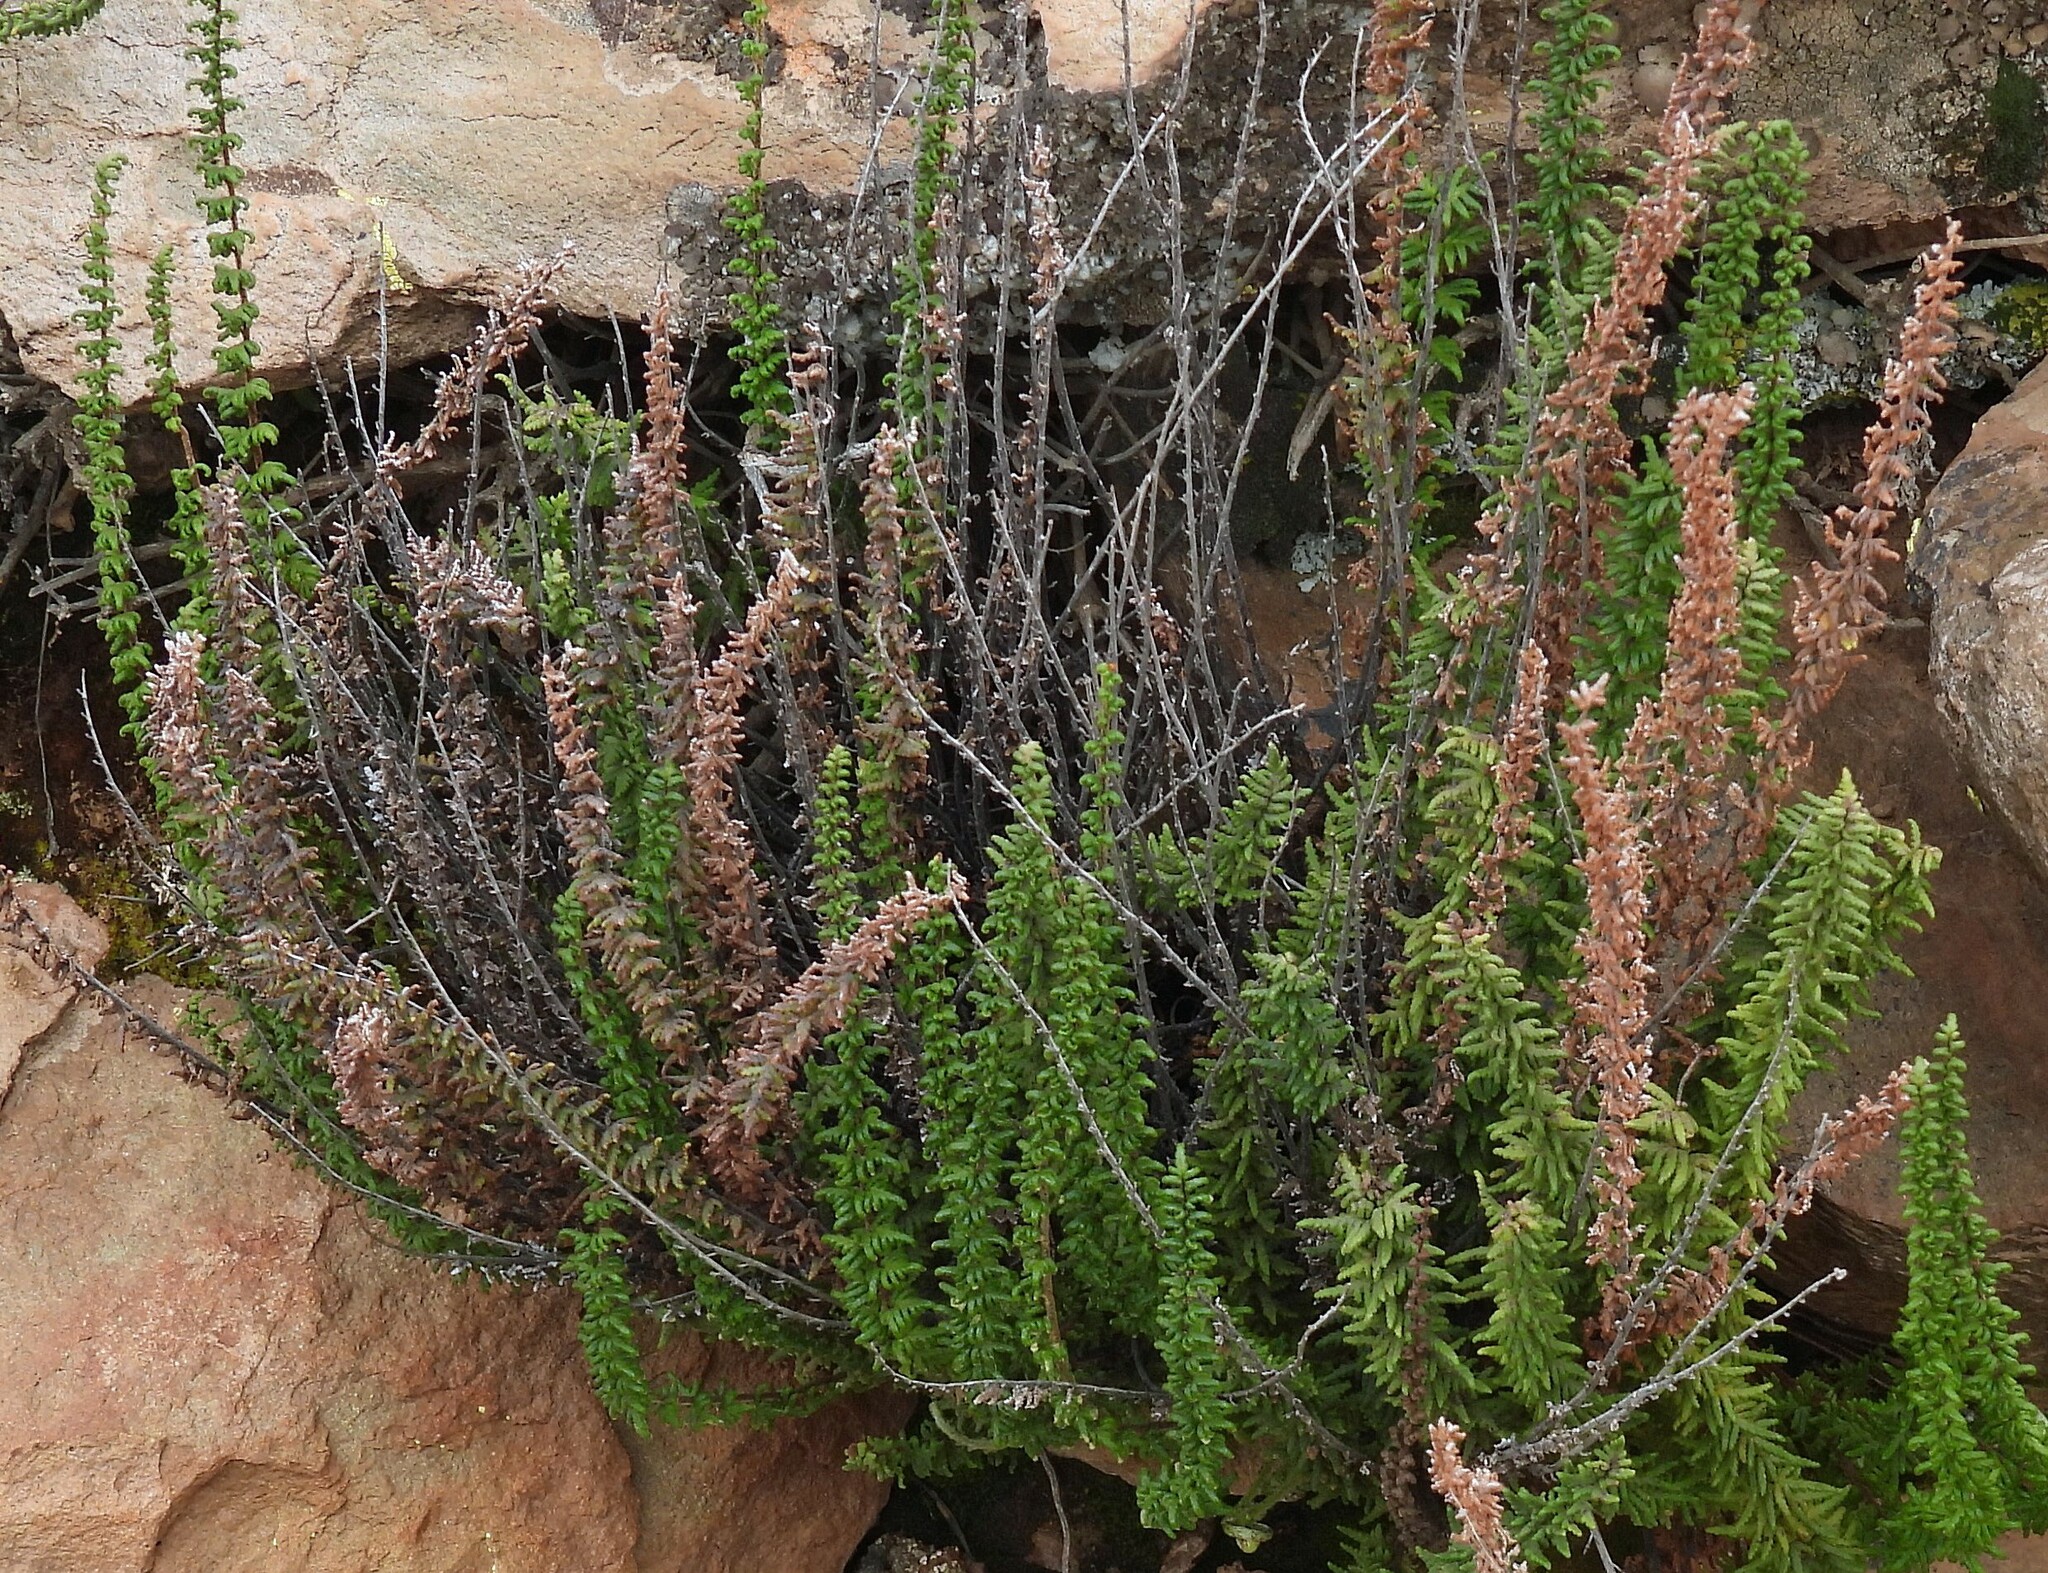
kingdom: Plantae
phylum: Tracheophyta
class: Polypodiopsida
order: Polypodiales
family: Pteridaceae
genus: Cheilanthes
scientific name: Cheilanthes pruinata
